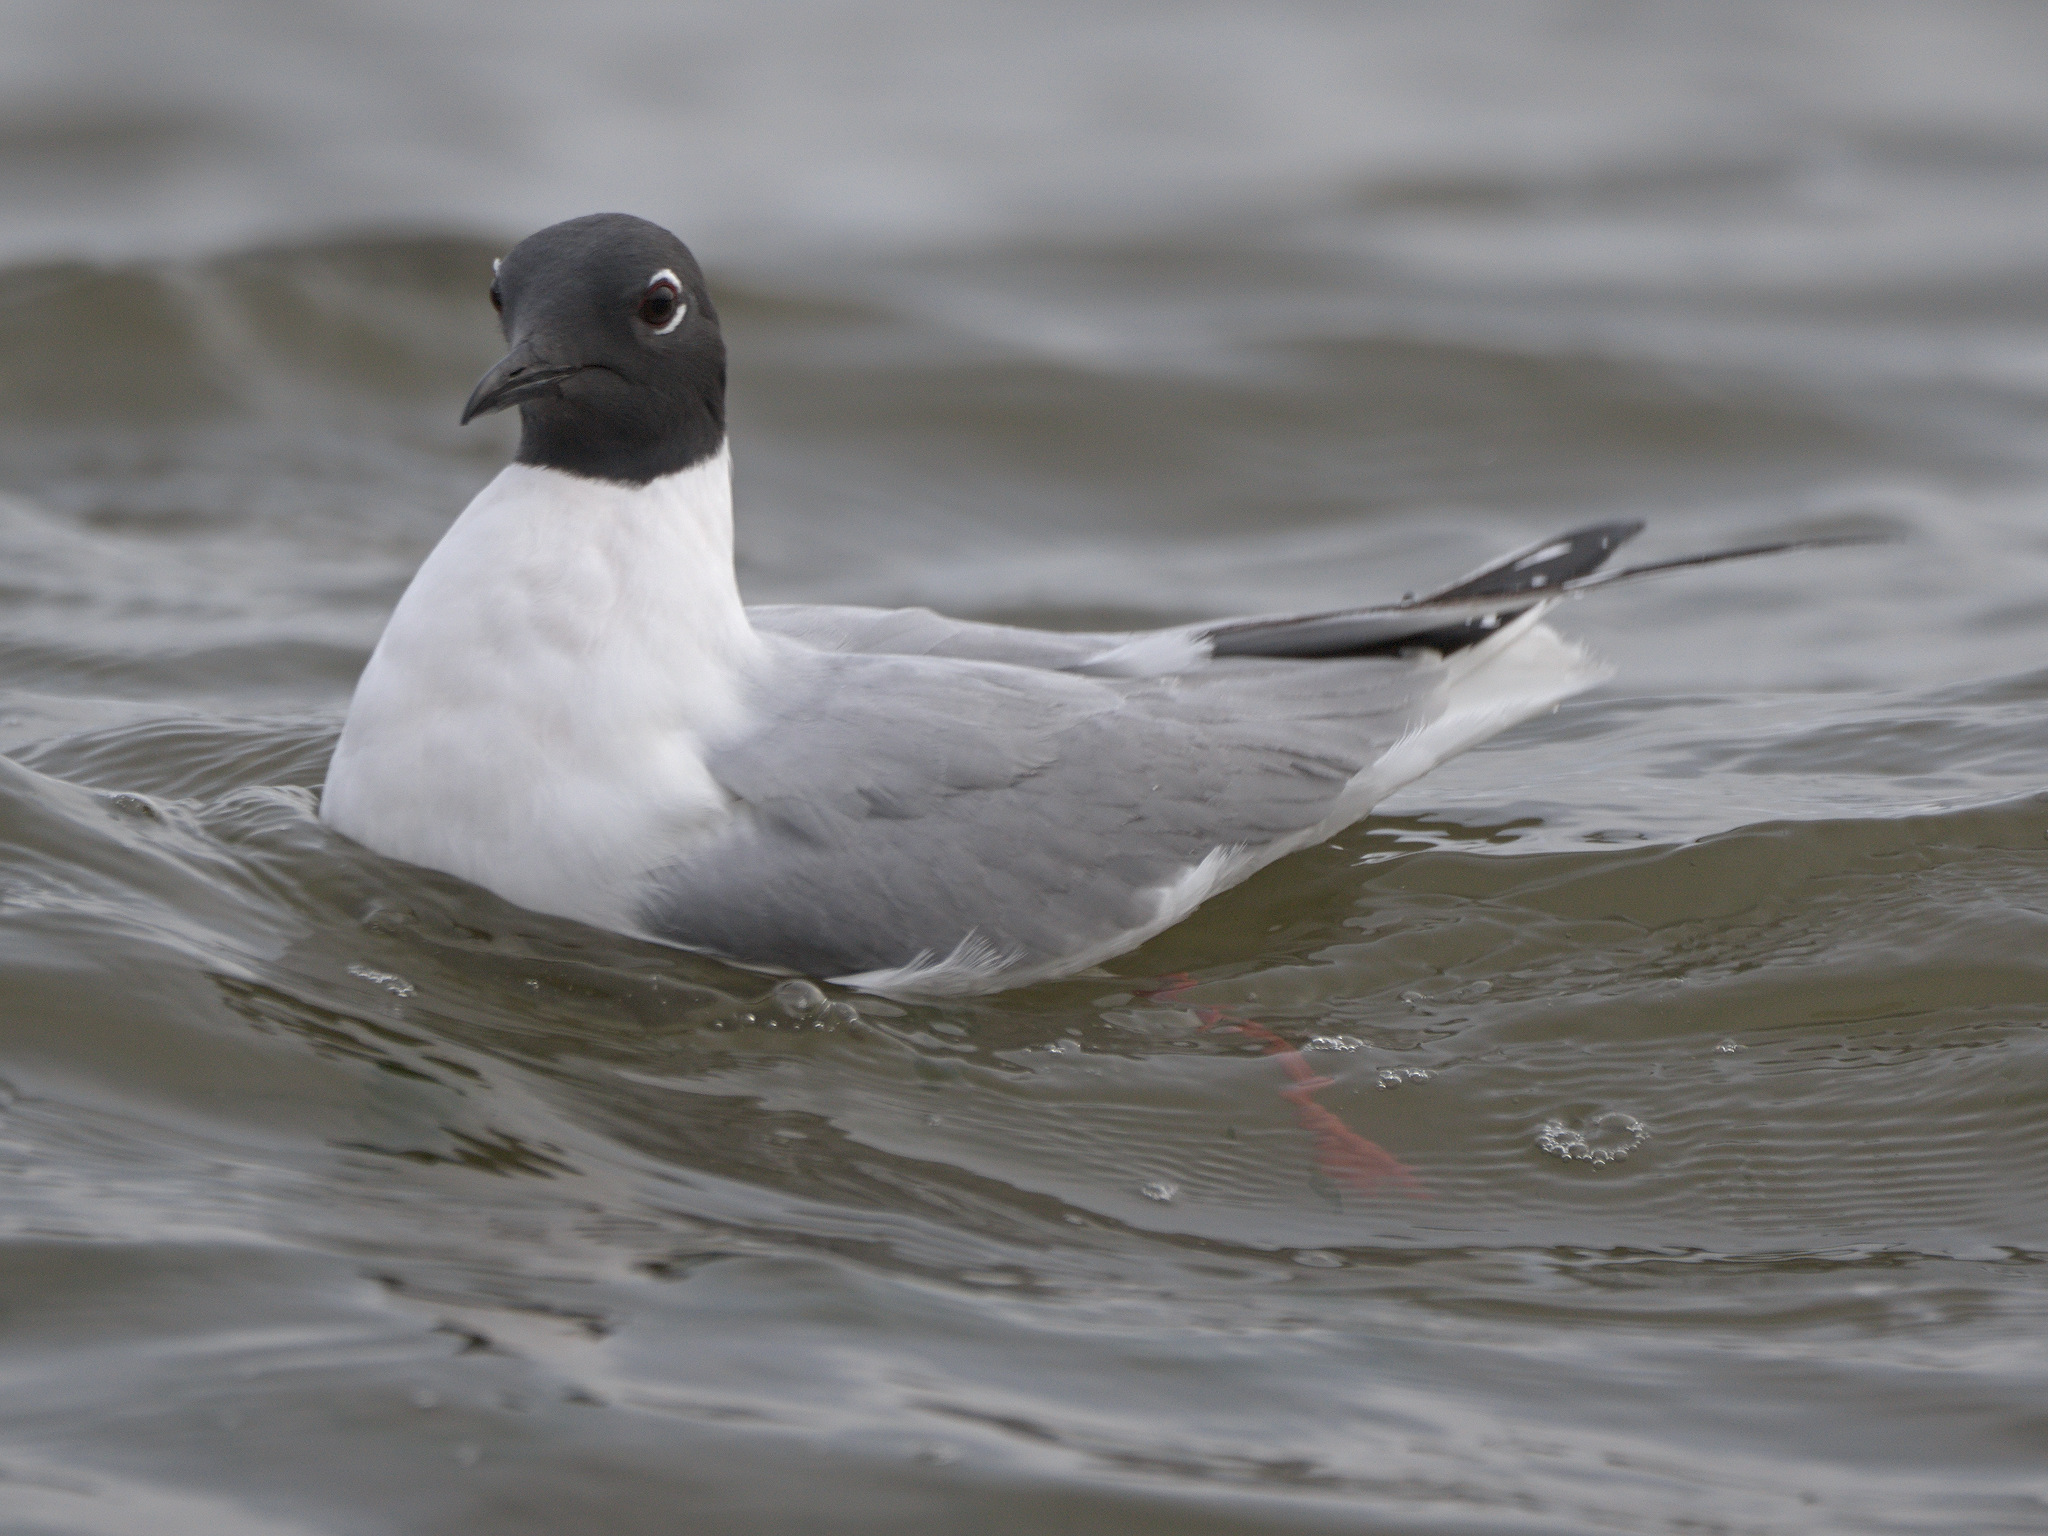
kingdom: Animalia
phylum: Chordata
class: Aves
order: Charadriiformes
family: Laridae
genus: Chroicocephalus
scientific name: Chroicocephalus philadelphia
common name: Bonaparte's gull
